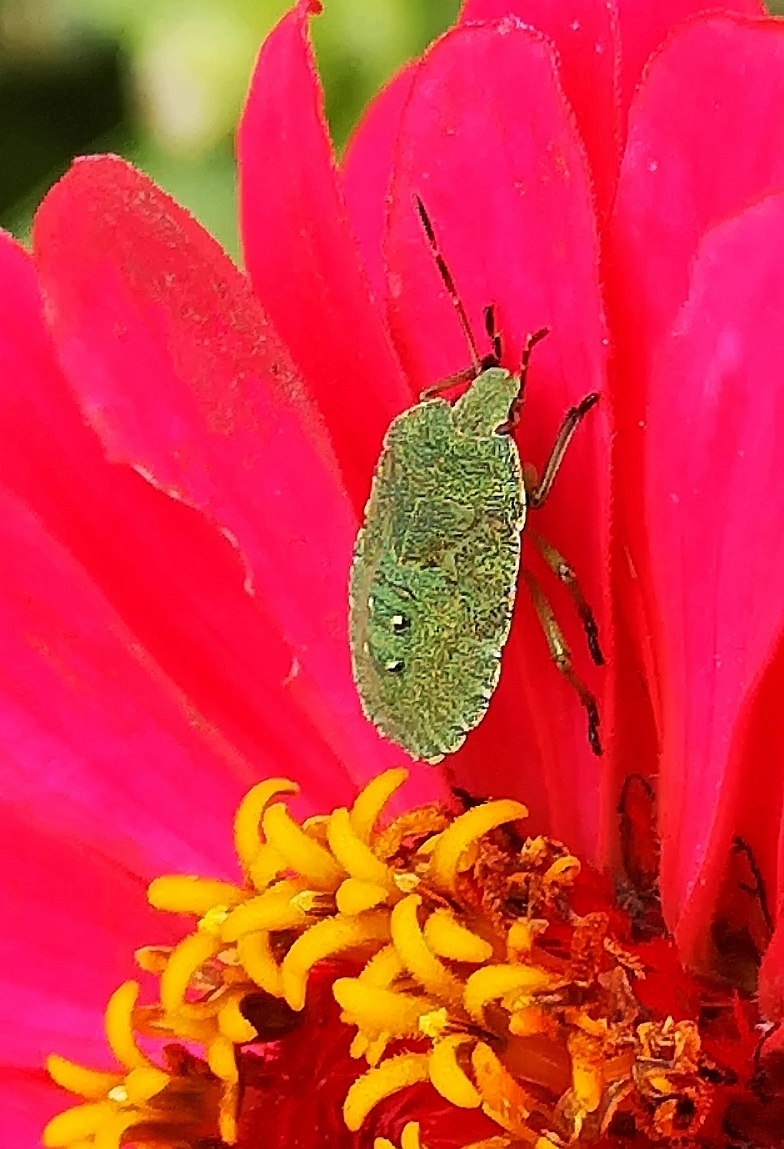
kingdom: Animalia
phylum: Arthropoda
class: Insecta
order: Hemiptera
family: Pentatomidae
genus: Palomena
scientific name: Palomena prasina
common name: Green shieldbug
